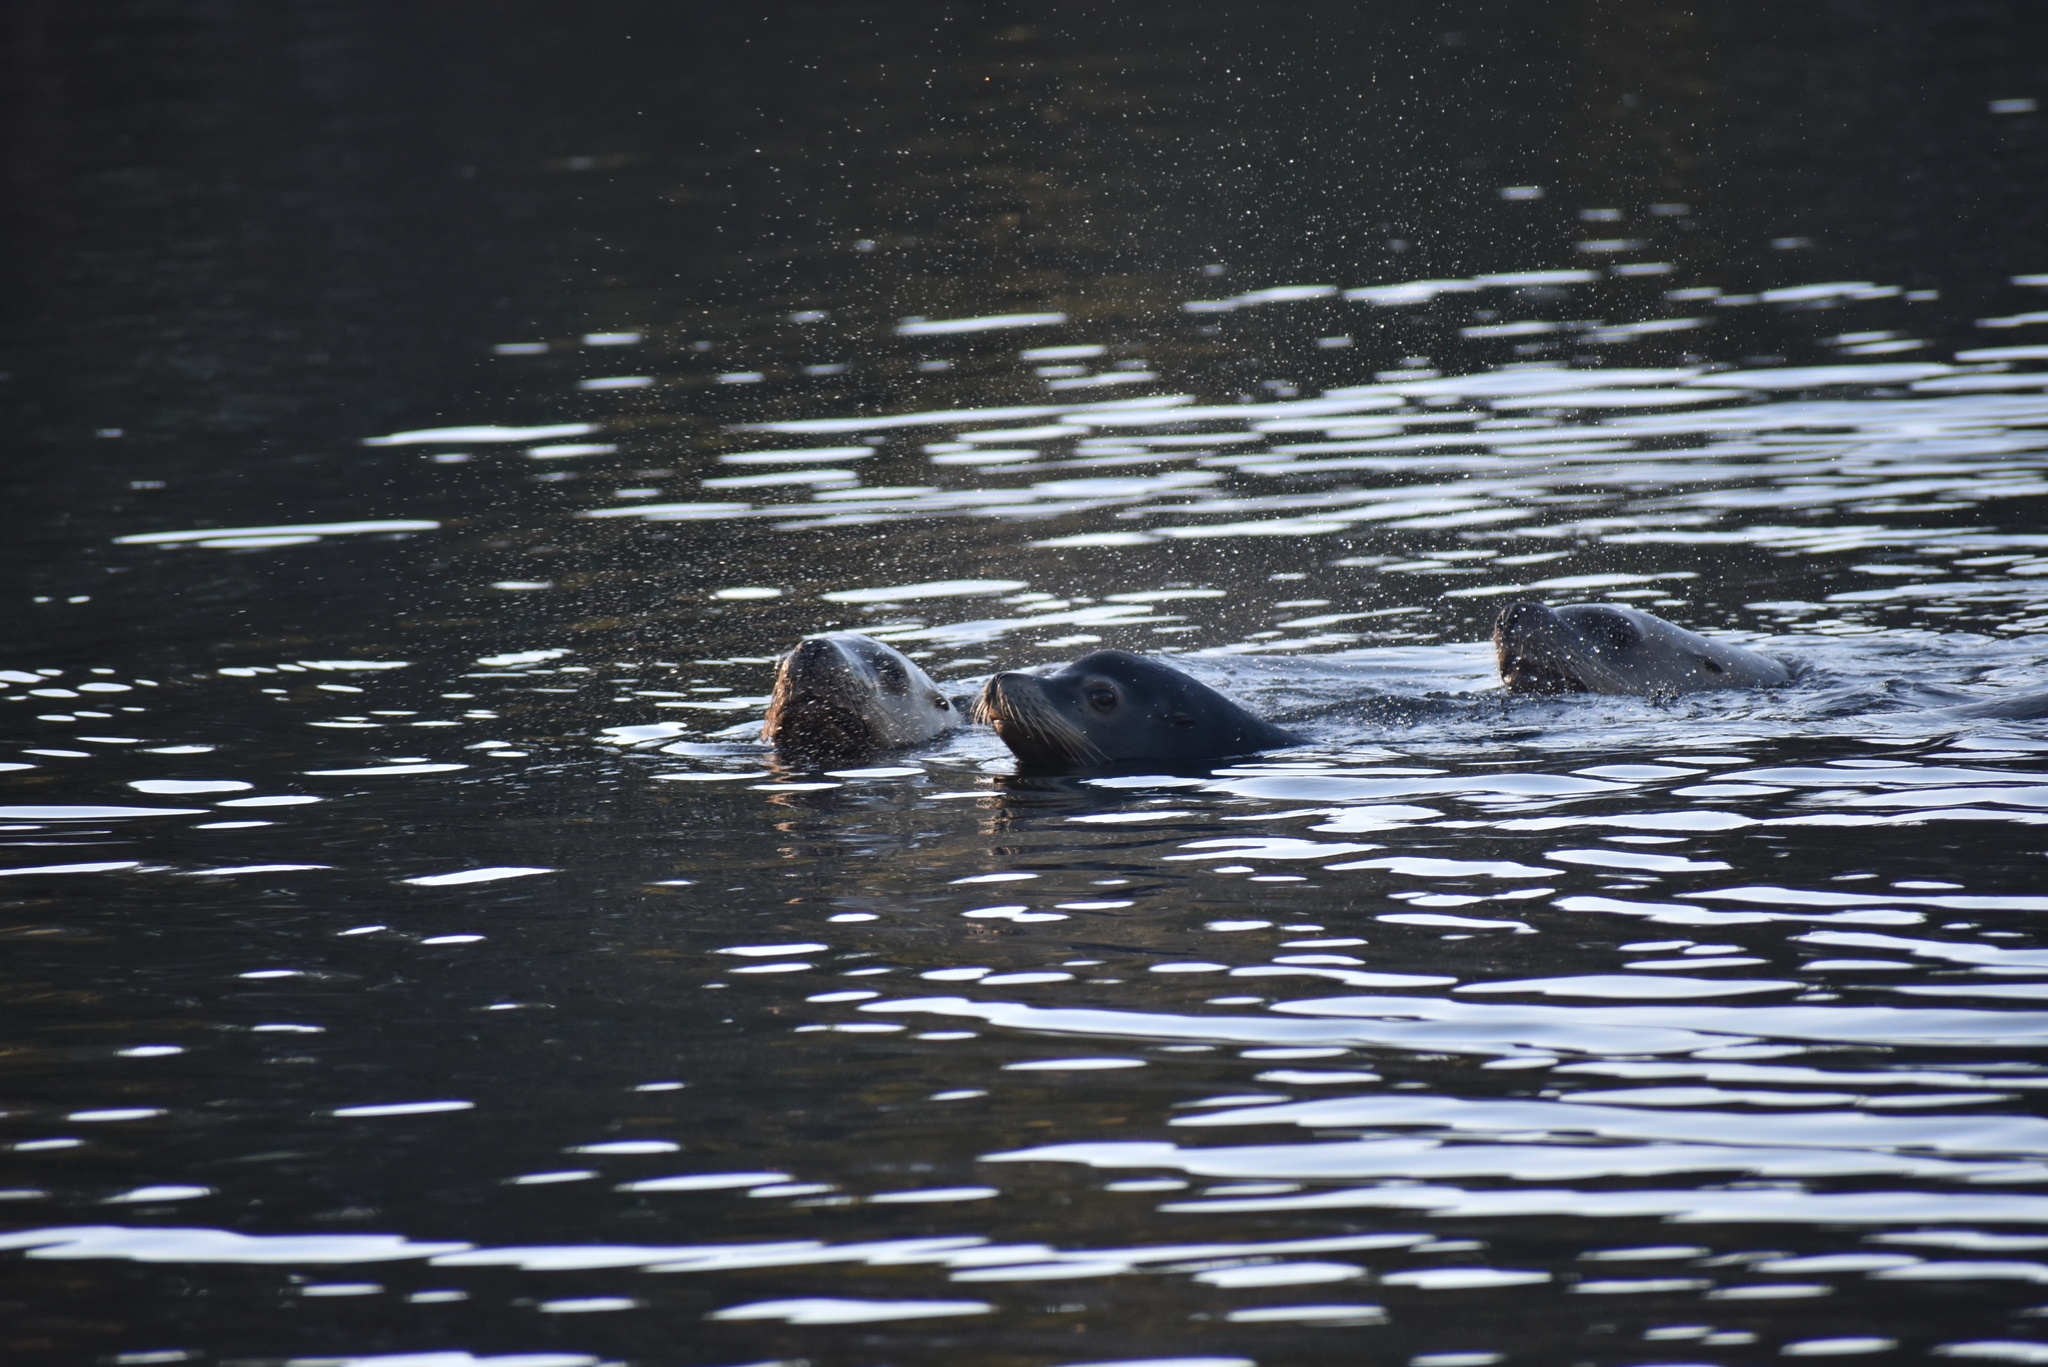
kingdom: Animalia
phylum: Chordata
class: Mammalia
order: Carnivora
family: Otariidae
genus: Zalophus
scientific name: Zalophus californianus
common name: California sea lion
